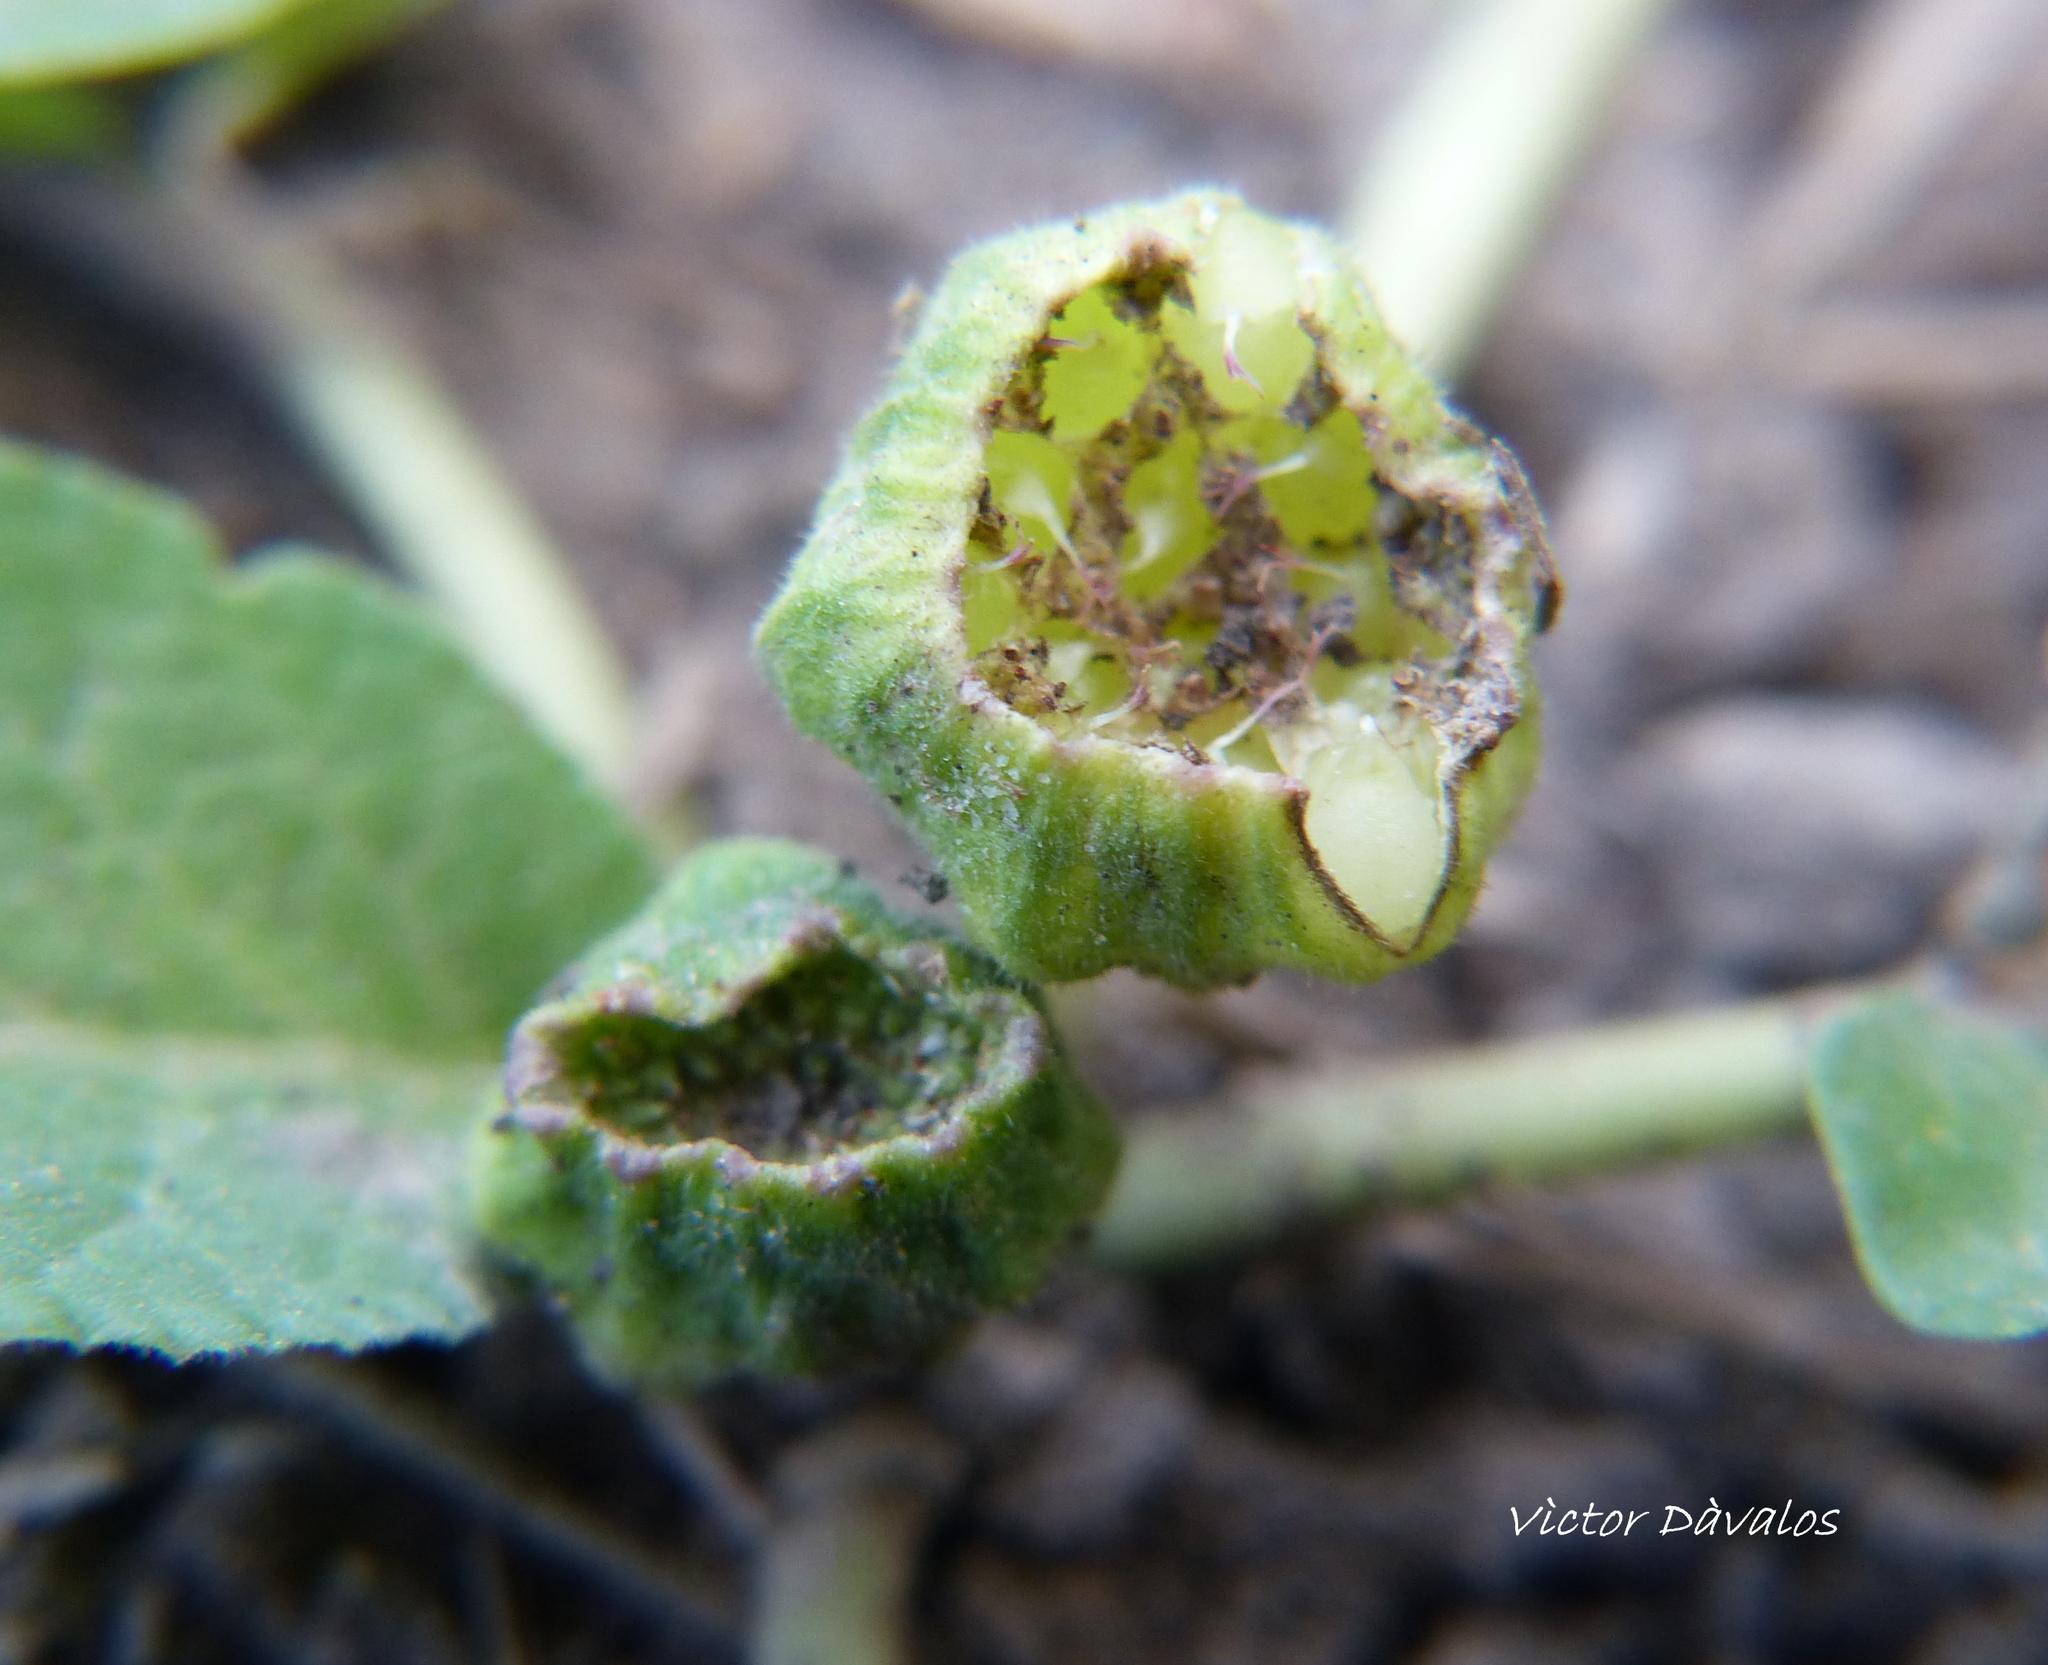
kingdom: Plantae
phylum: Tracheophyta
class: Magnoliopsida
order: Rosales
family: Moraceae
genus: Dorstenia
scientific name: Dorstenia brasiliensis
